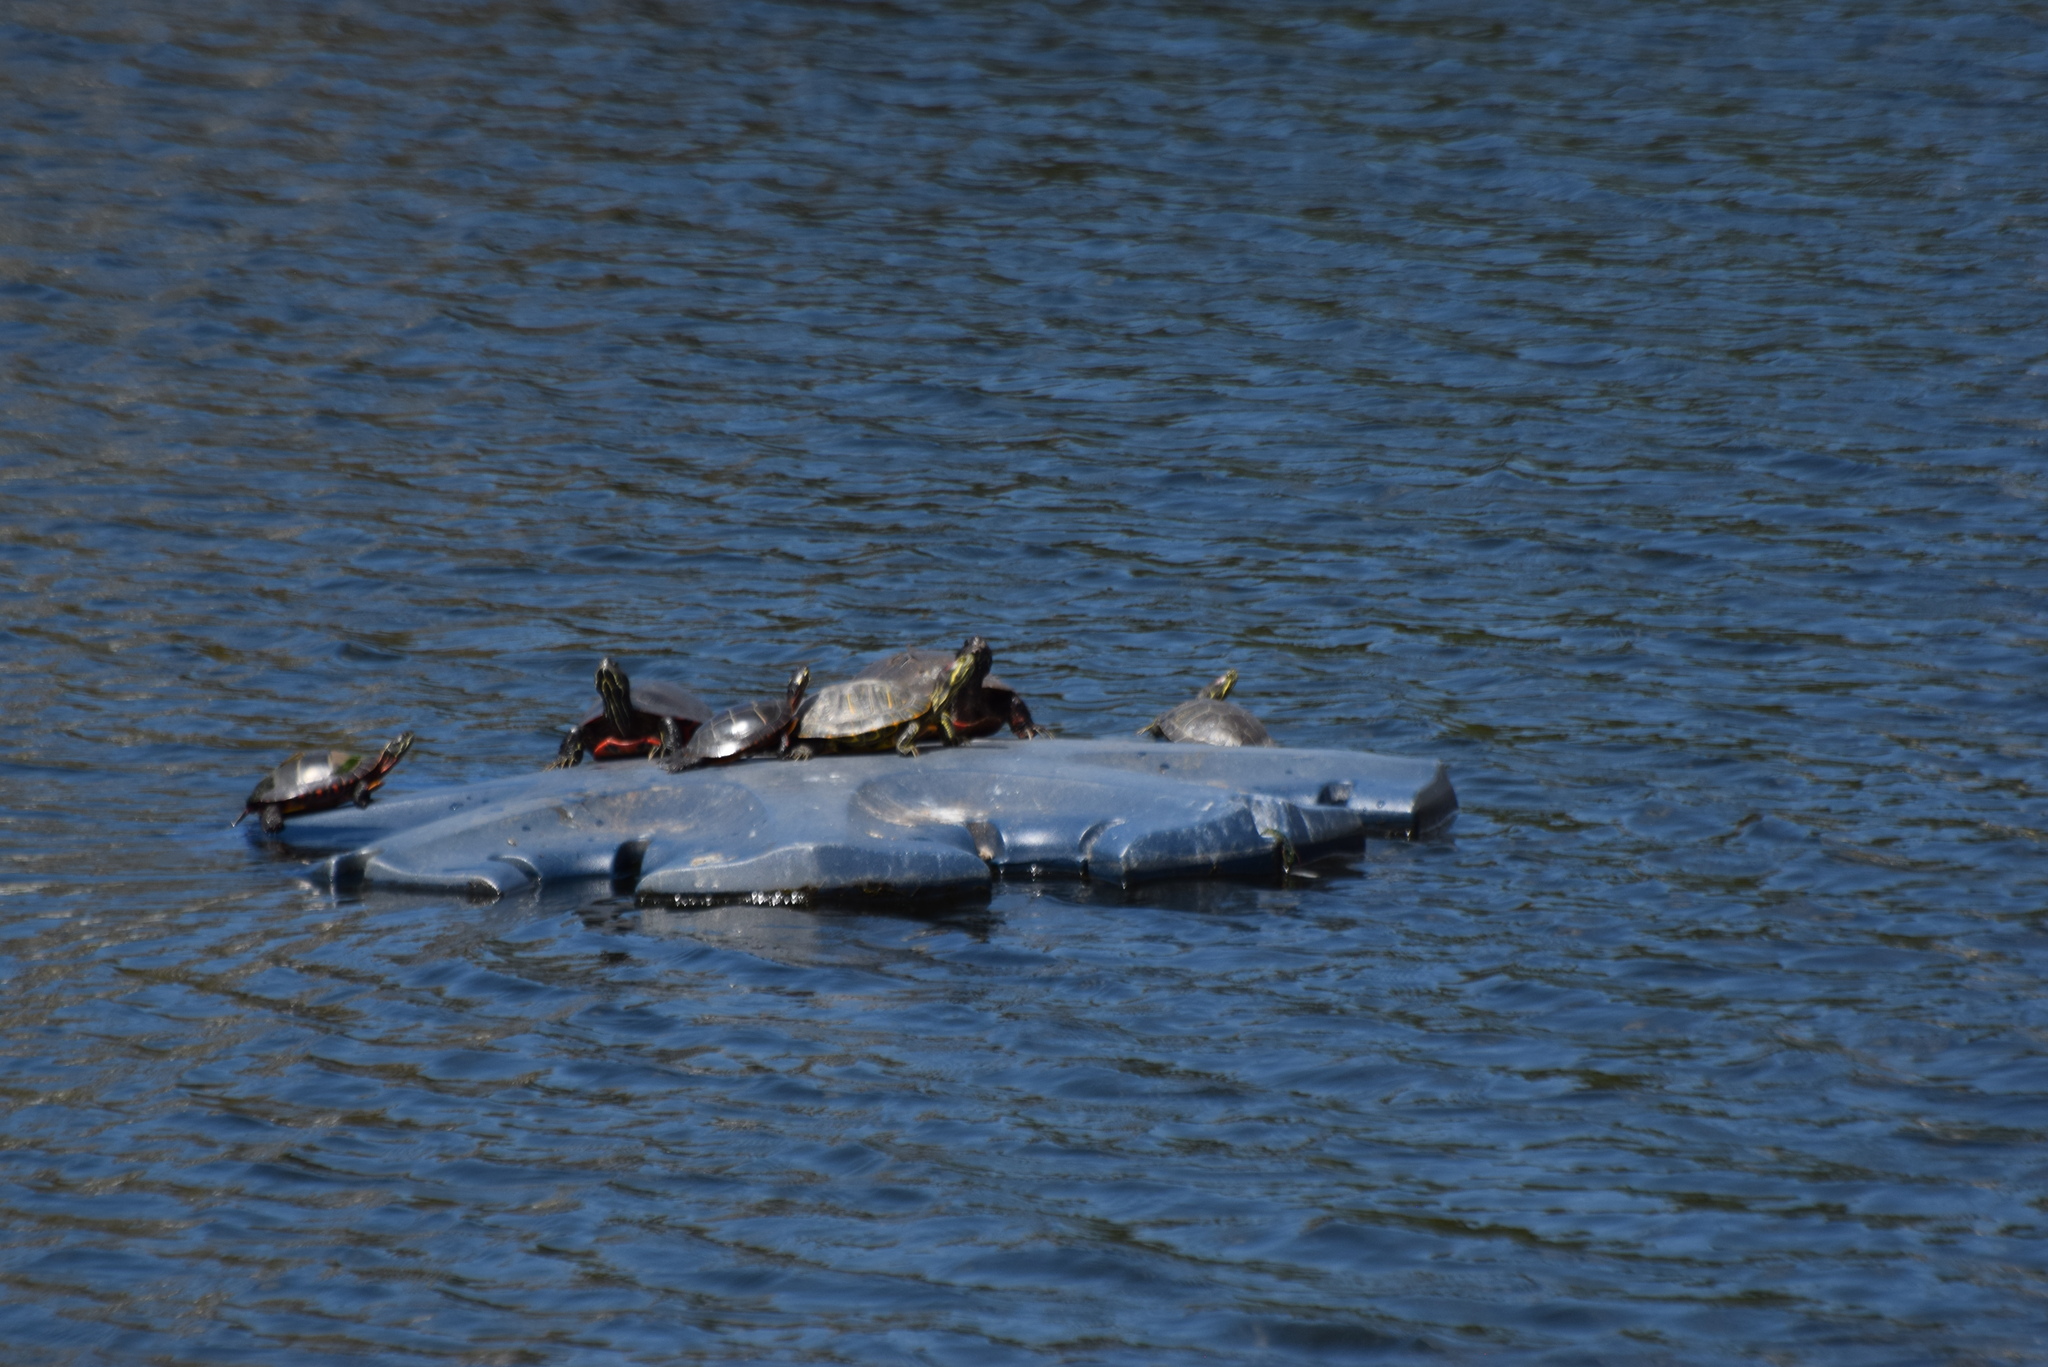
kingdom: Animalia
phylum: Chordata
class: Testudines
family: Emydidae
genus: Trachemys
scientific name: Trachemys scripta
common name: Slider
